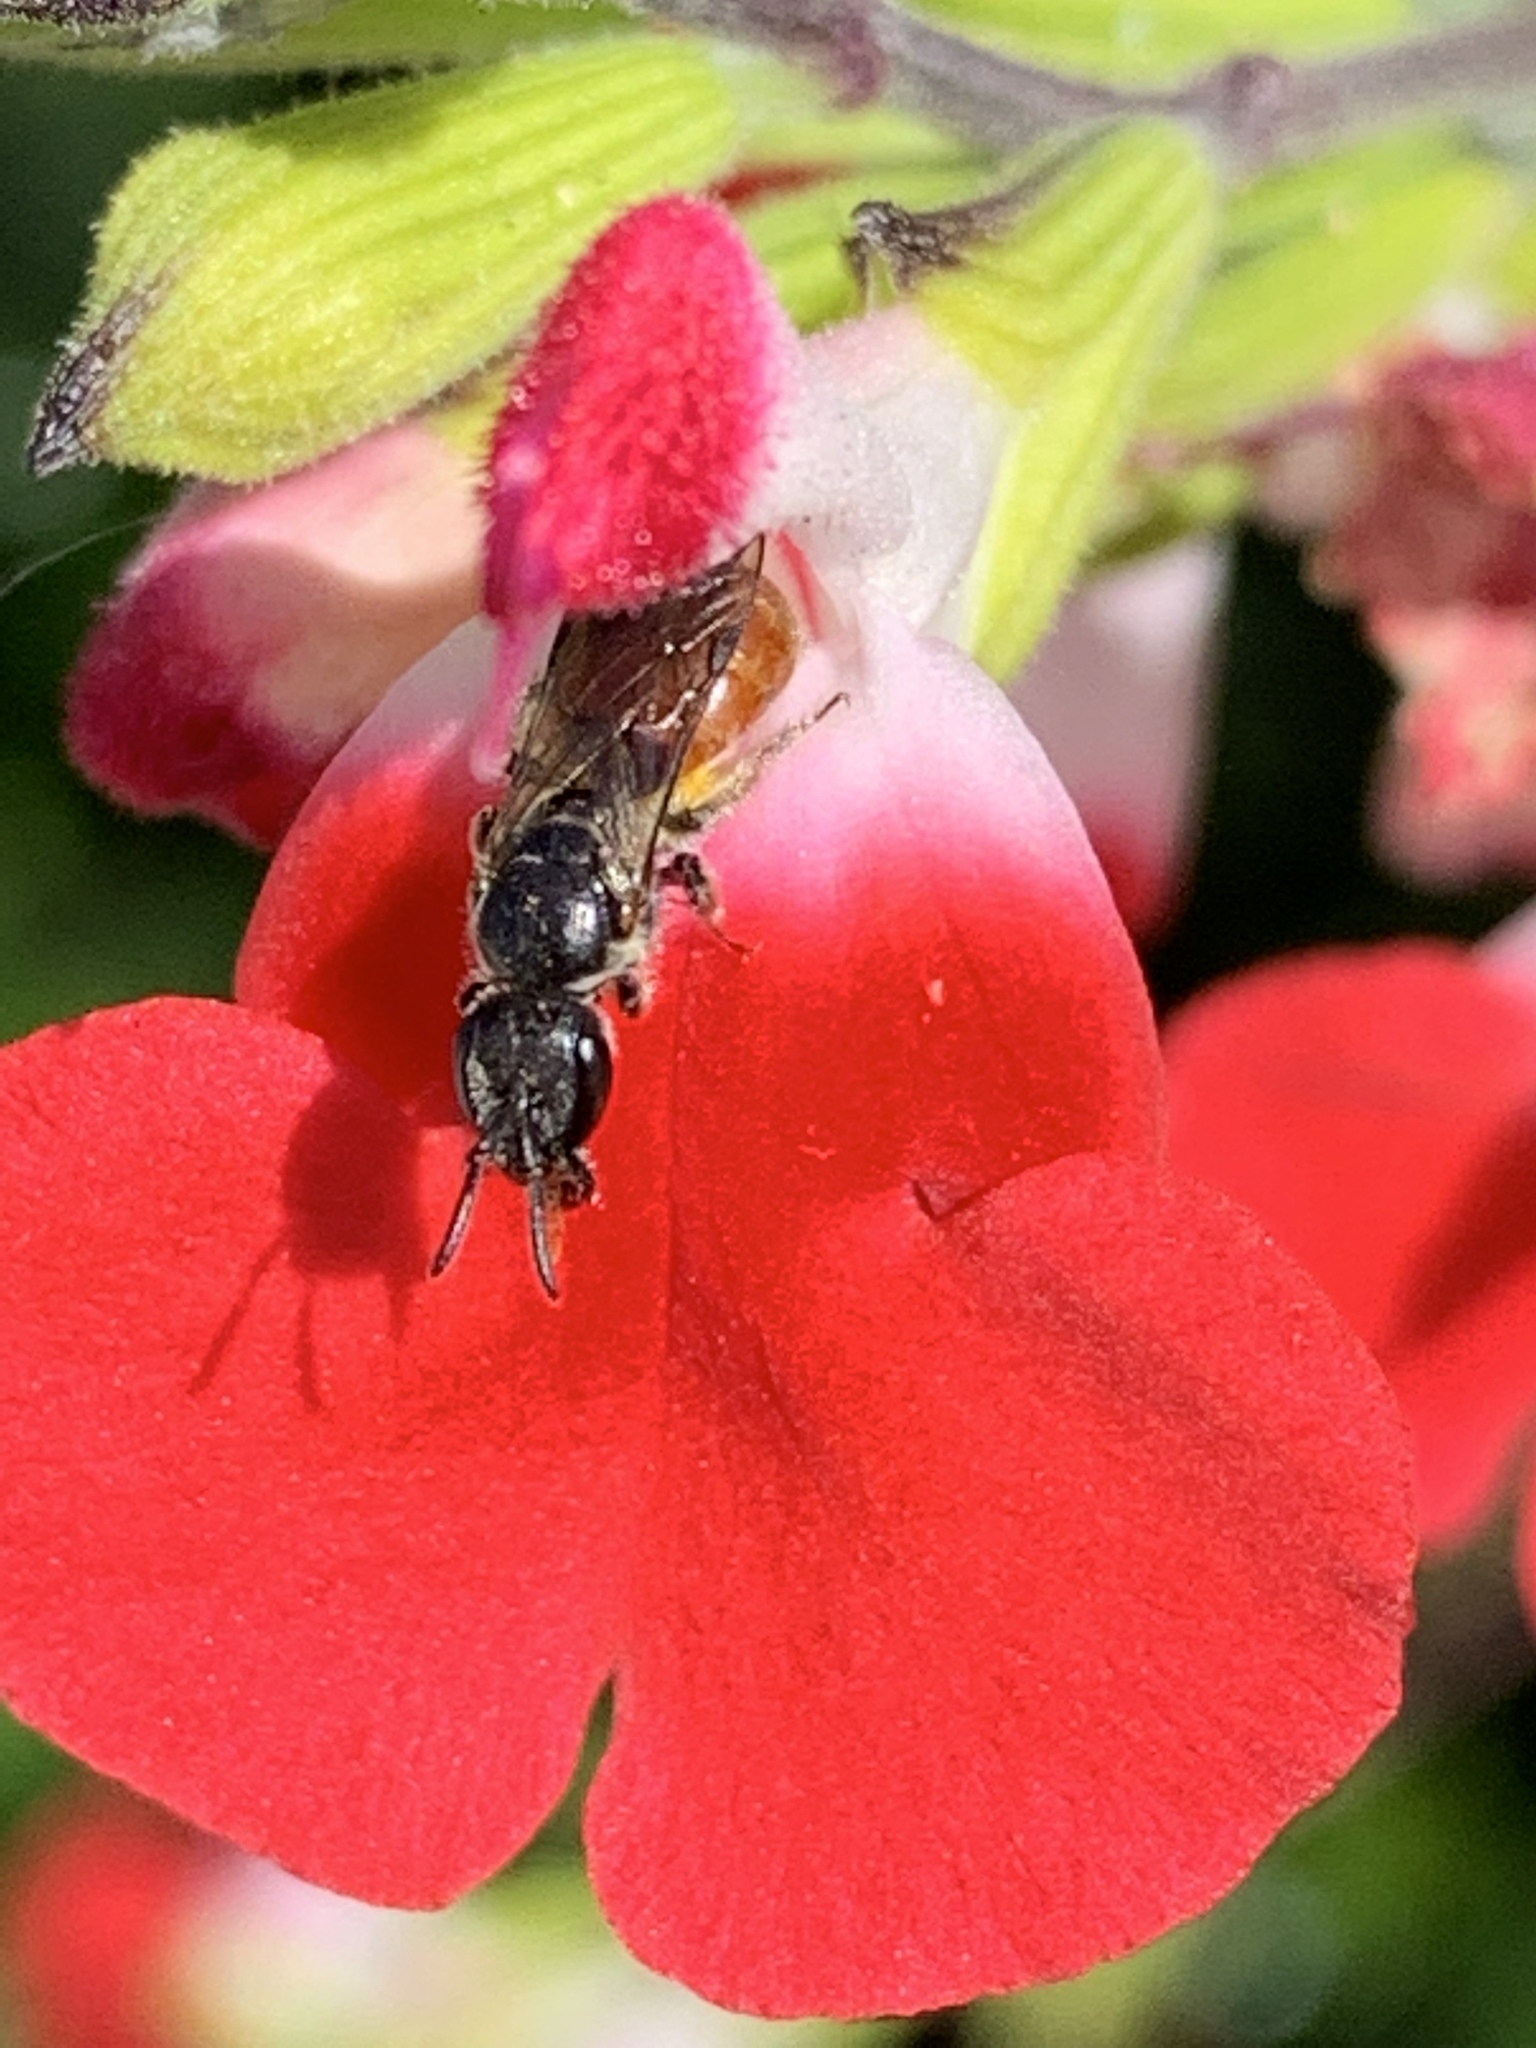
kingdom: Animalia
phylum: Arthropoda
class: Insecta
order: Hymenoptera
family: Halictidae
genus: Lasioglossum
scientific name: Lasioglossum ovaliceps
